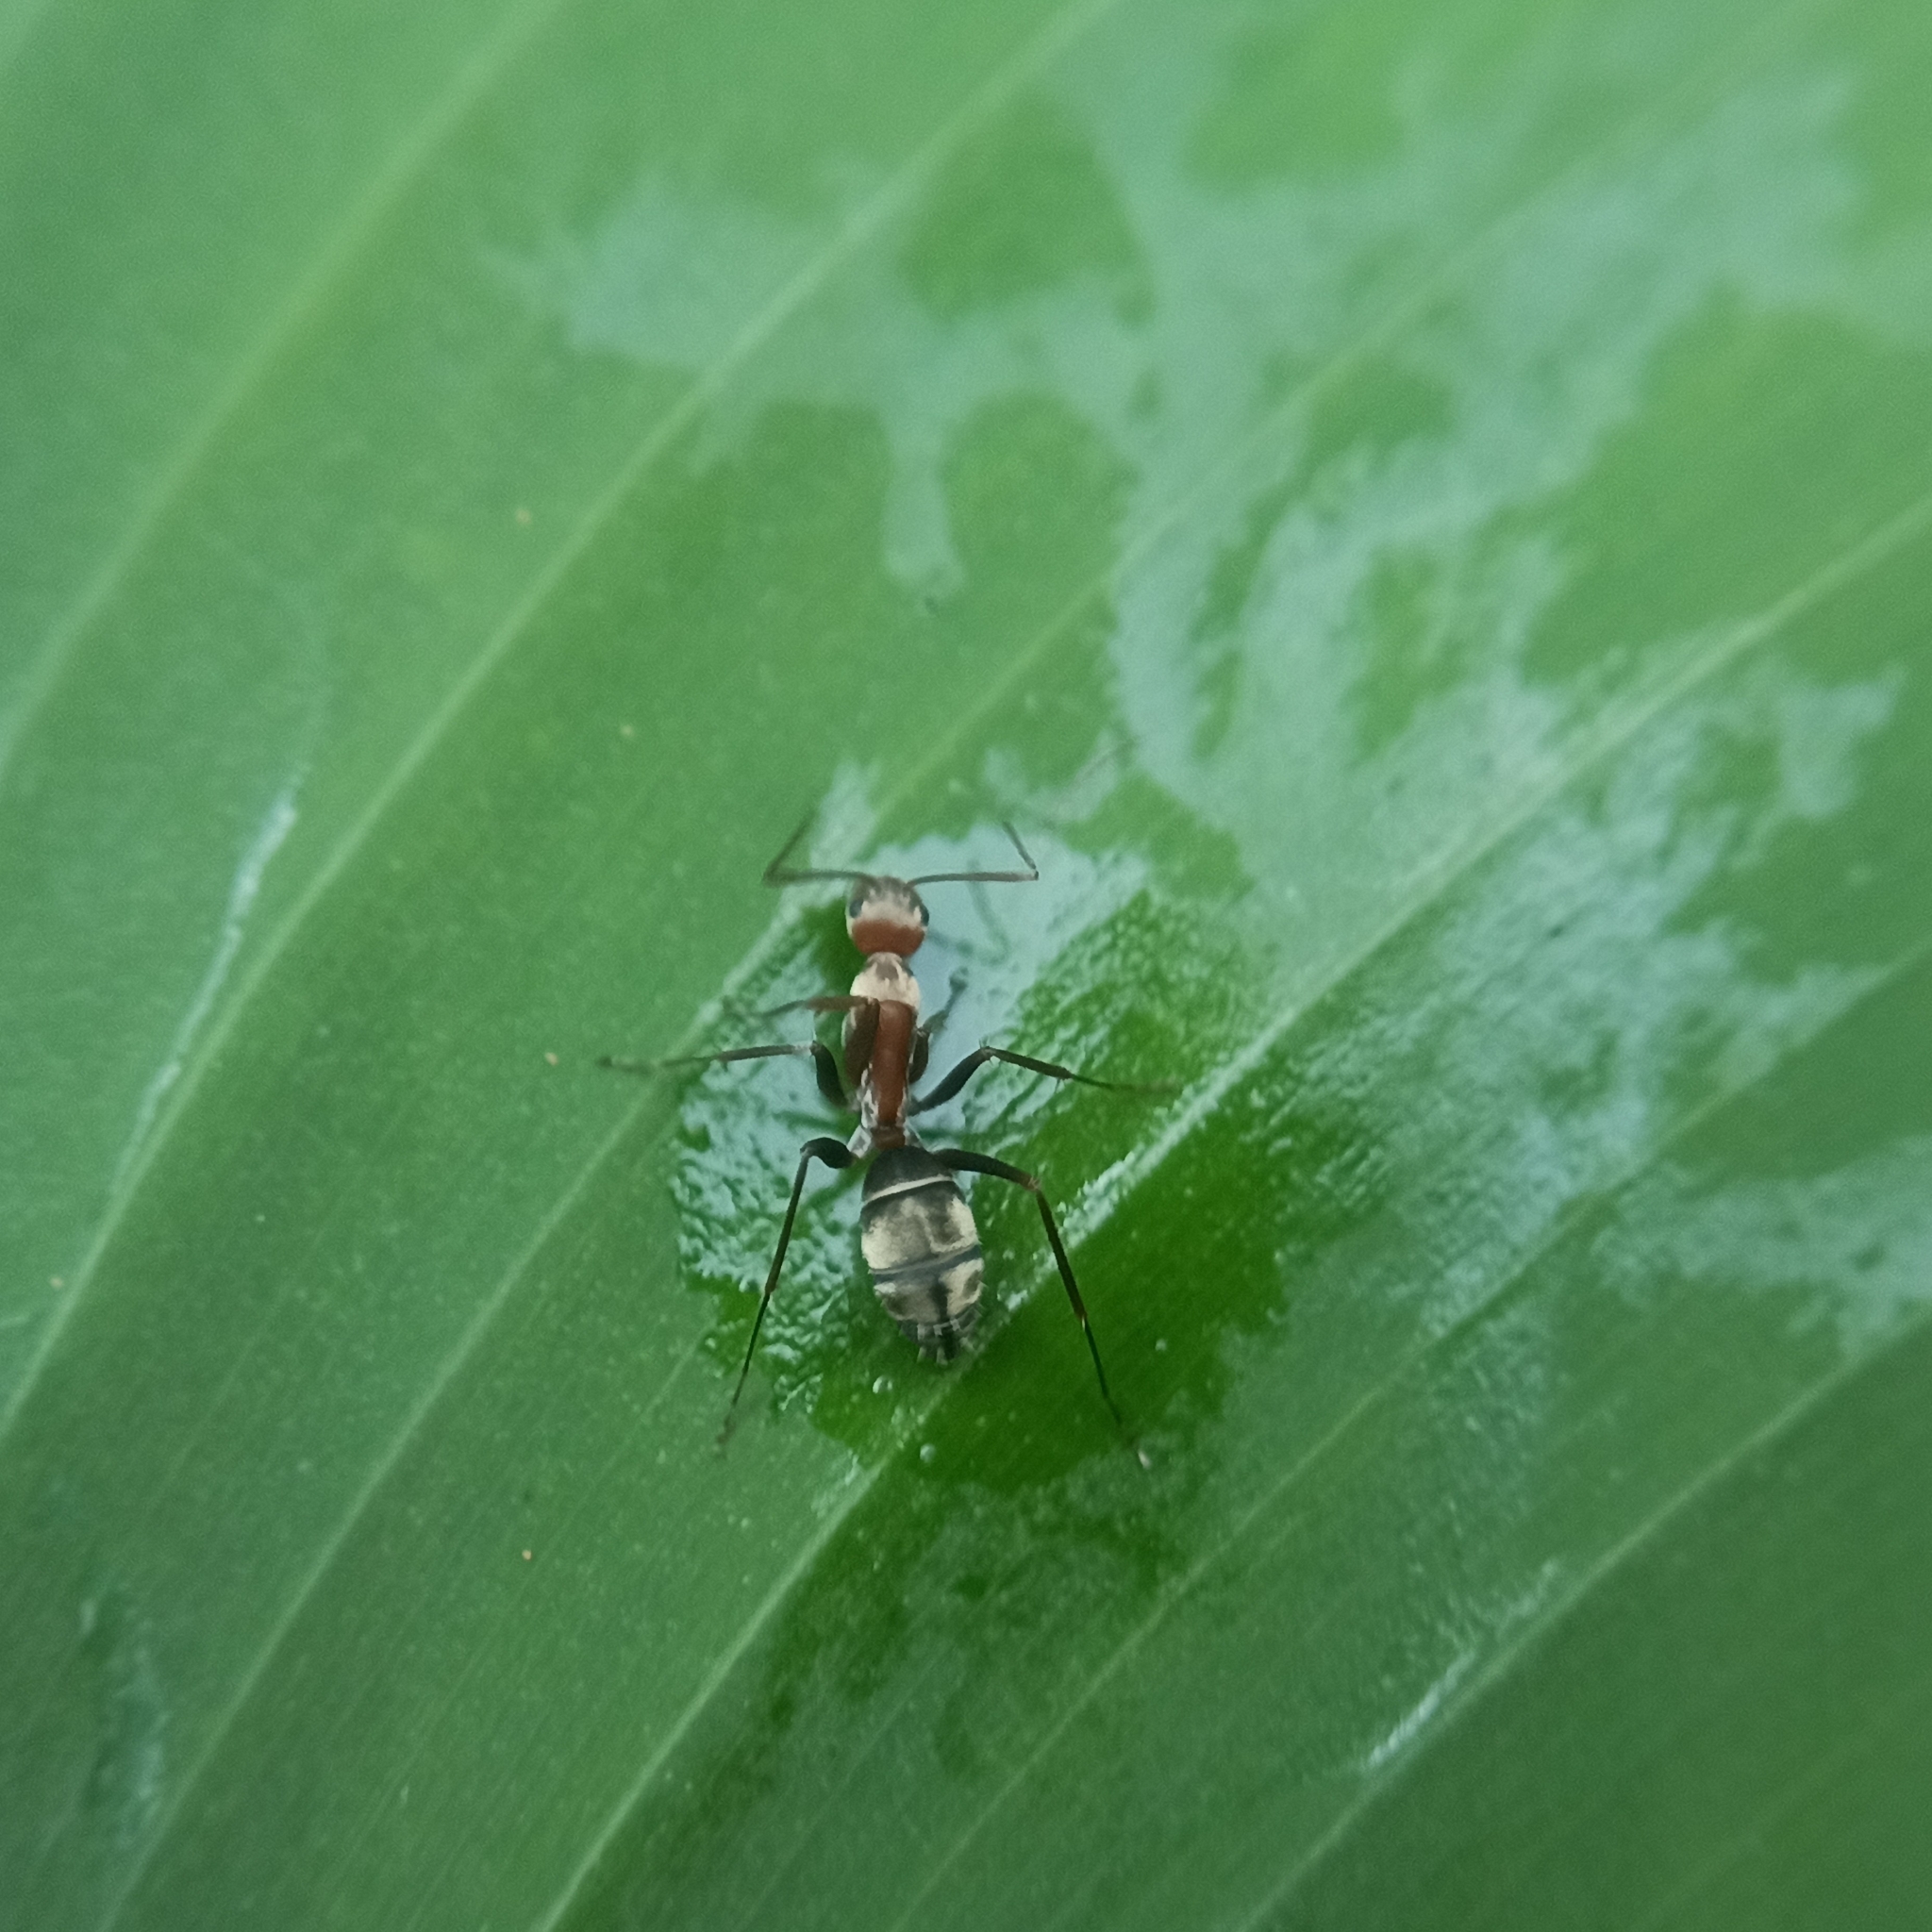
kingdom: Animalia
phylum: Arthropoda
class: Insecta
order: Hymenoptera
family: Formicidae
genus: Camponotus
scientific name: Camponotus rufoglaucus
